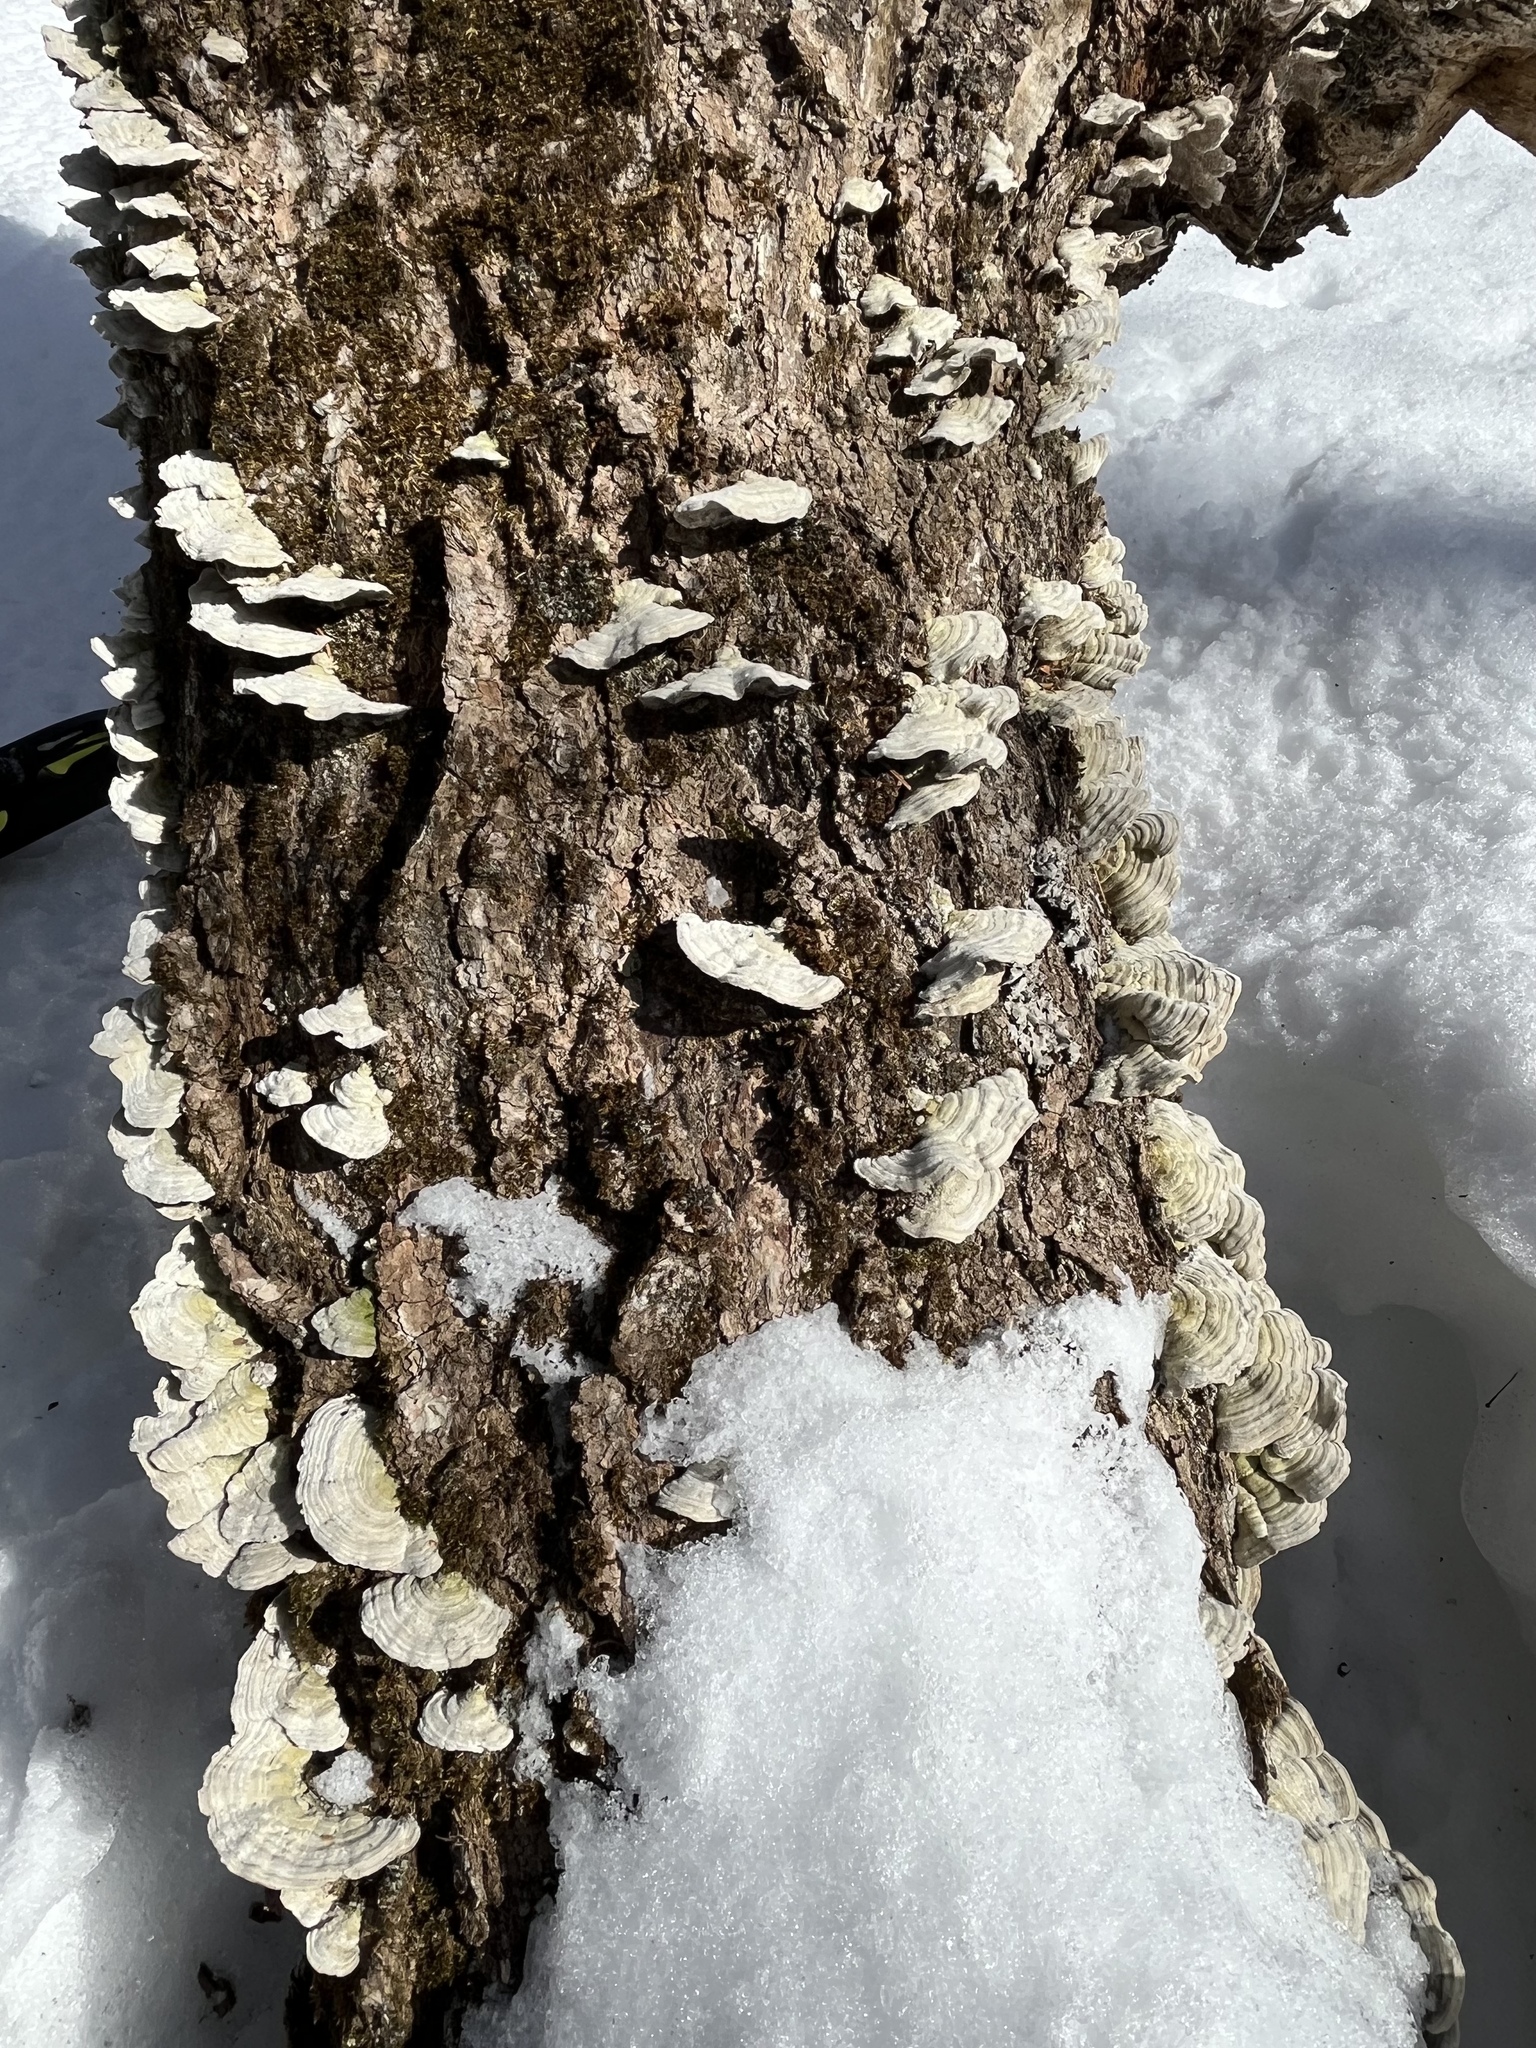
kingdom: Fungi
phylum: Basidiomycota
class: Agaricomycetes
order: Polyporales
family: Cerrenaceae
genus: Cerrena
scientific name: Cerrena unicolor
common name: Mossy maze polypore
